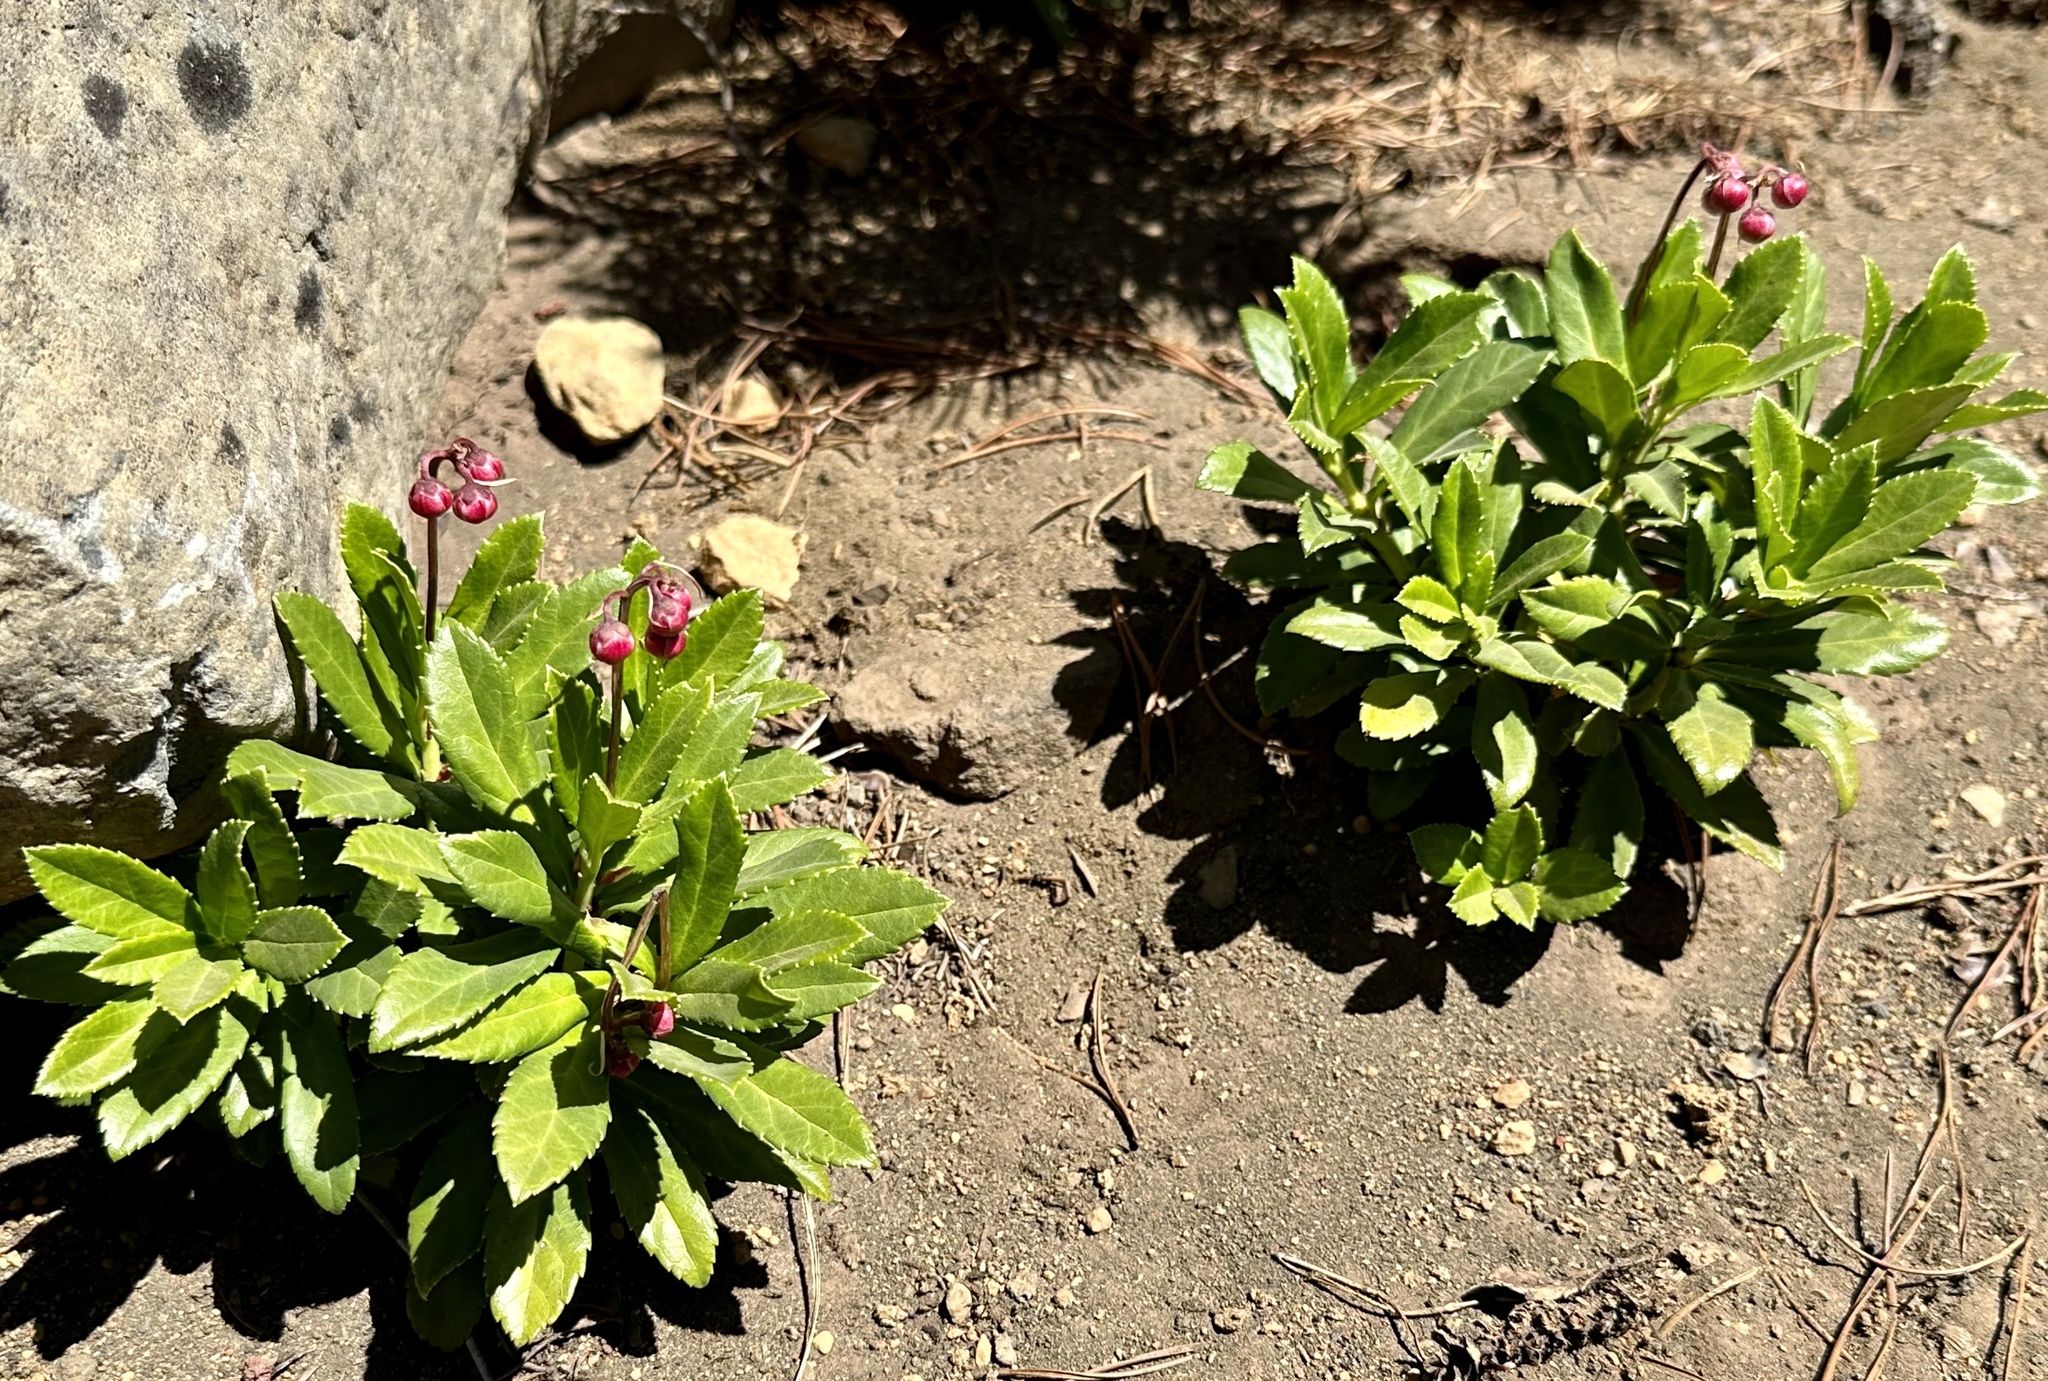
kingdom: Plantae
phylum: Tracheophyta
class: Magnoliopsida
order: Ericales
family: Ericaceae
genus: Chimaphila
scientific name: Chimaphila umbellata
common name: Pipsissewa
